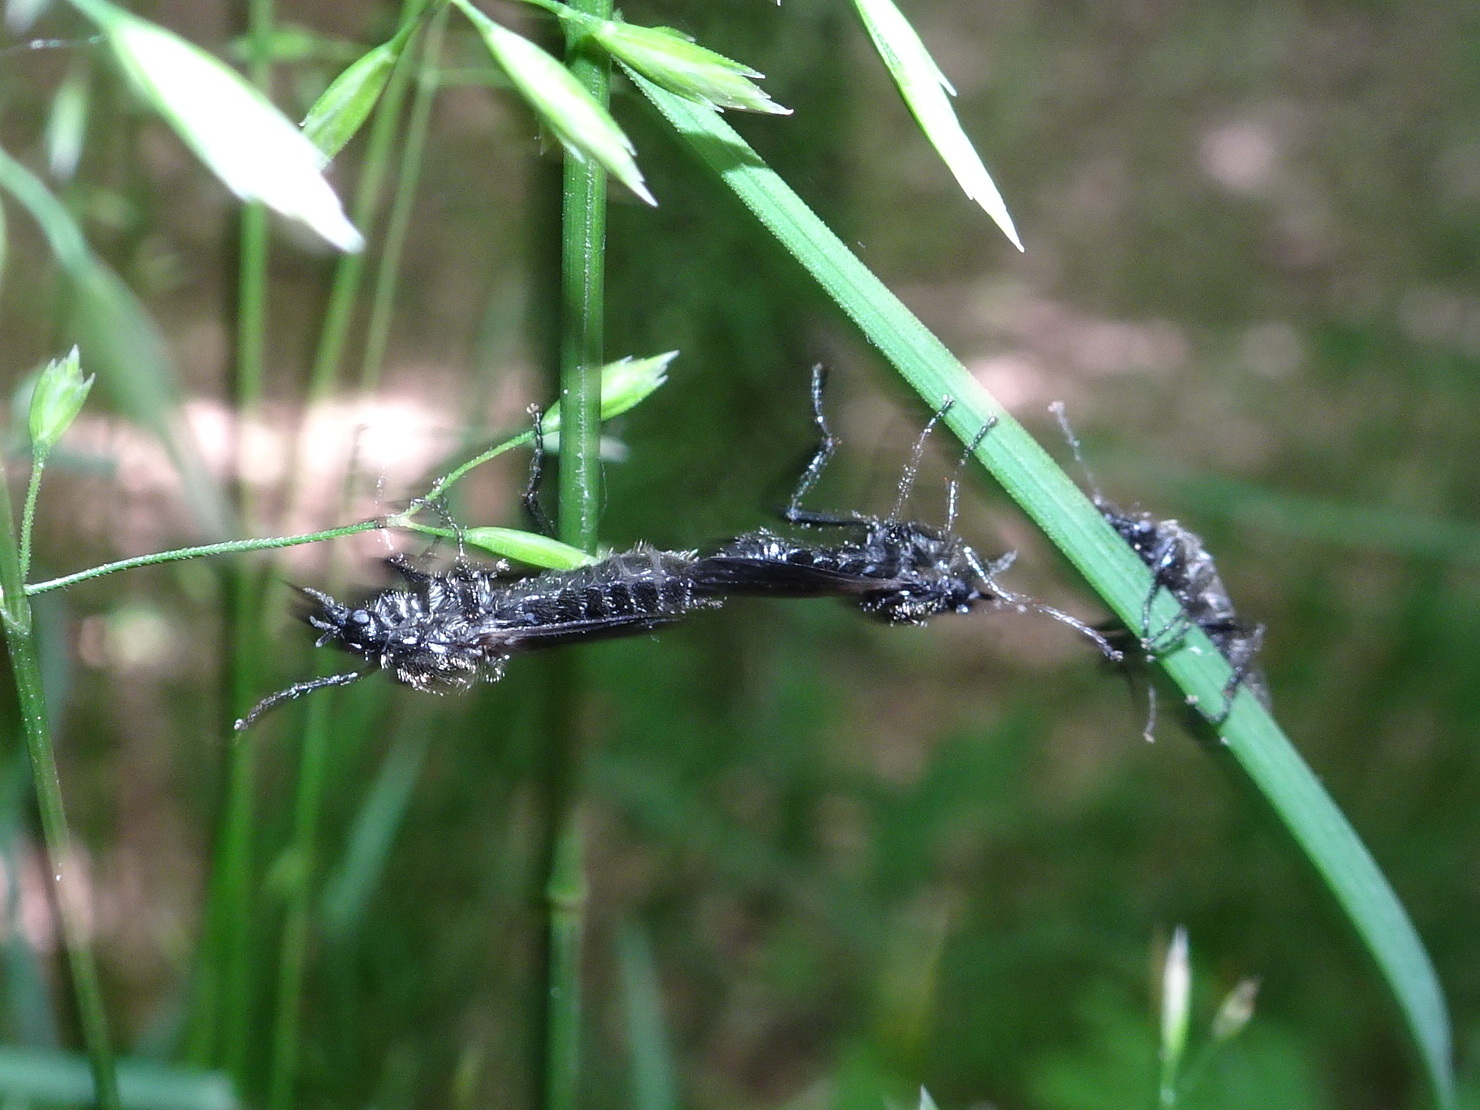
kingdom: Animalia
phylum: Arthropoda
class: Insecta
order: Diptera
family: Bibionidae
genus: Bibio
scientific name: Bibio albipennis
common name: White-winged march fly
